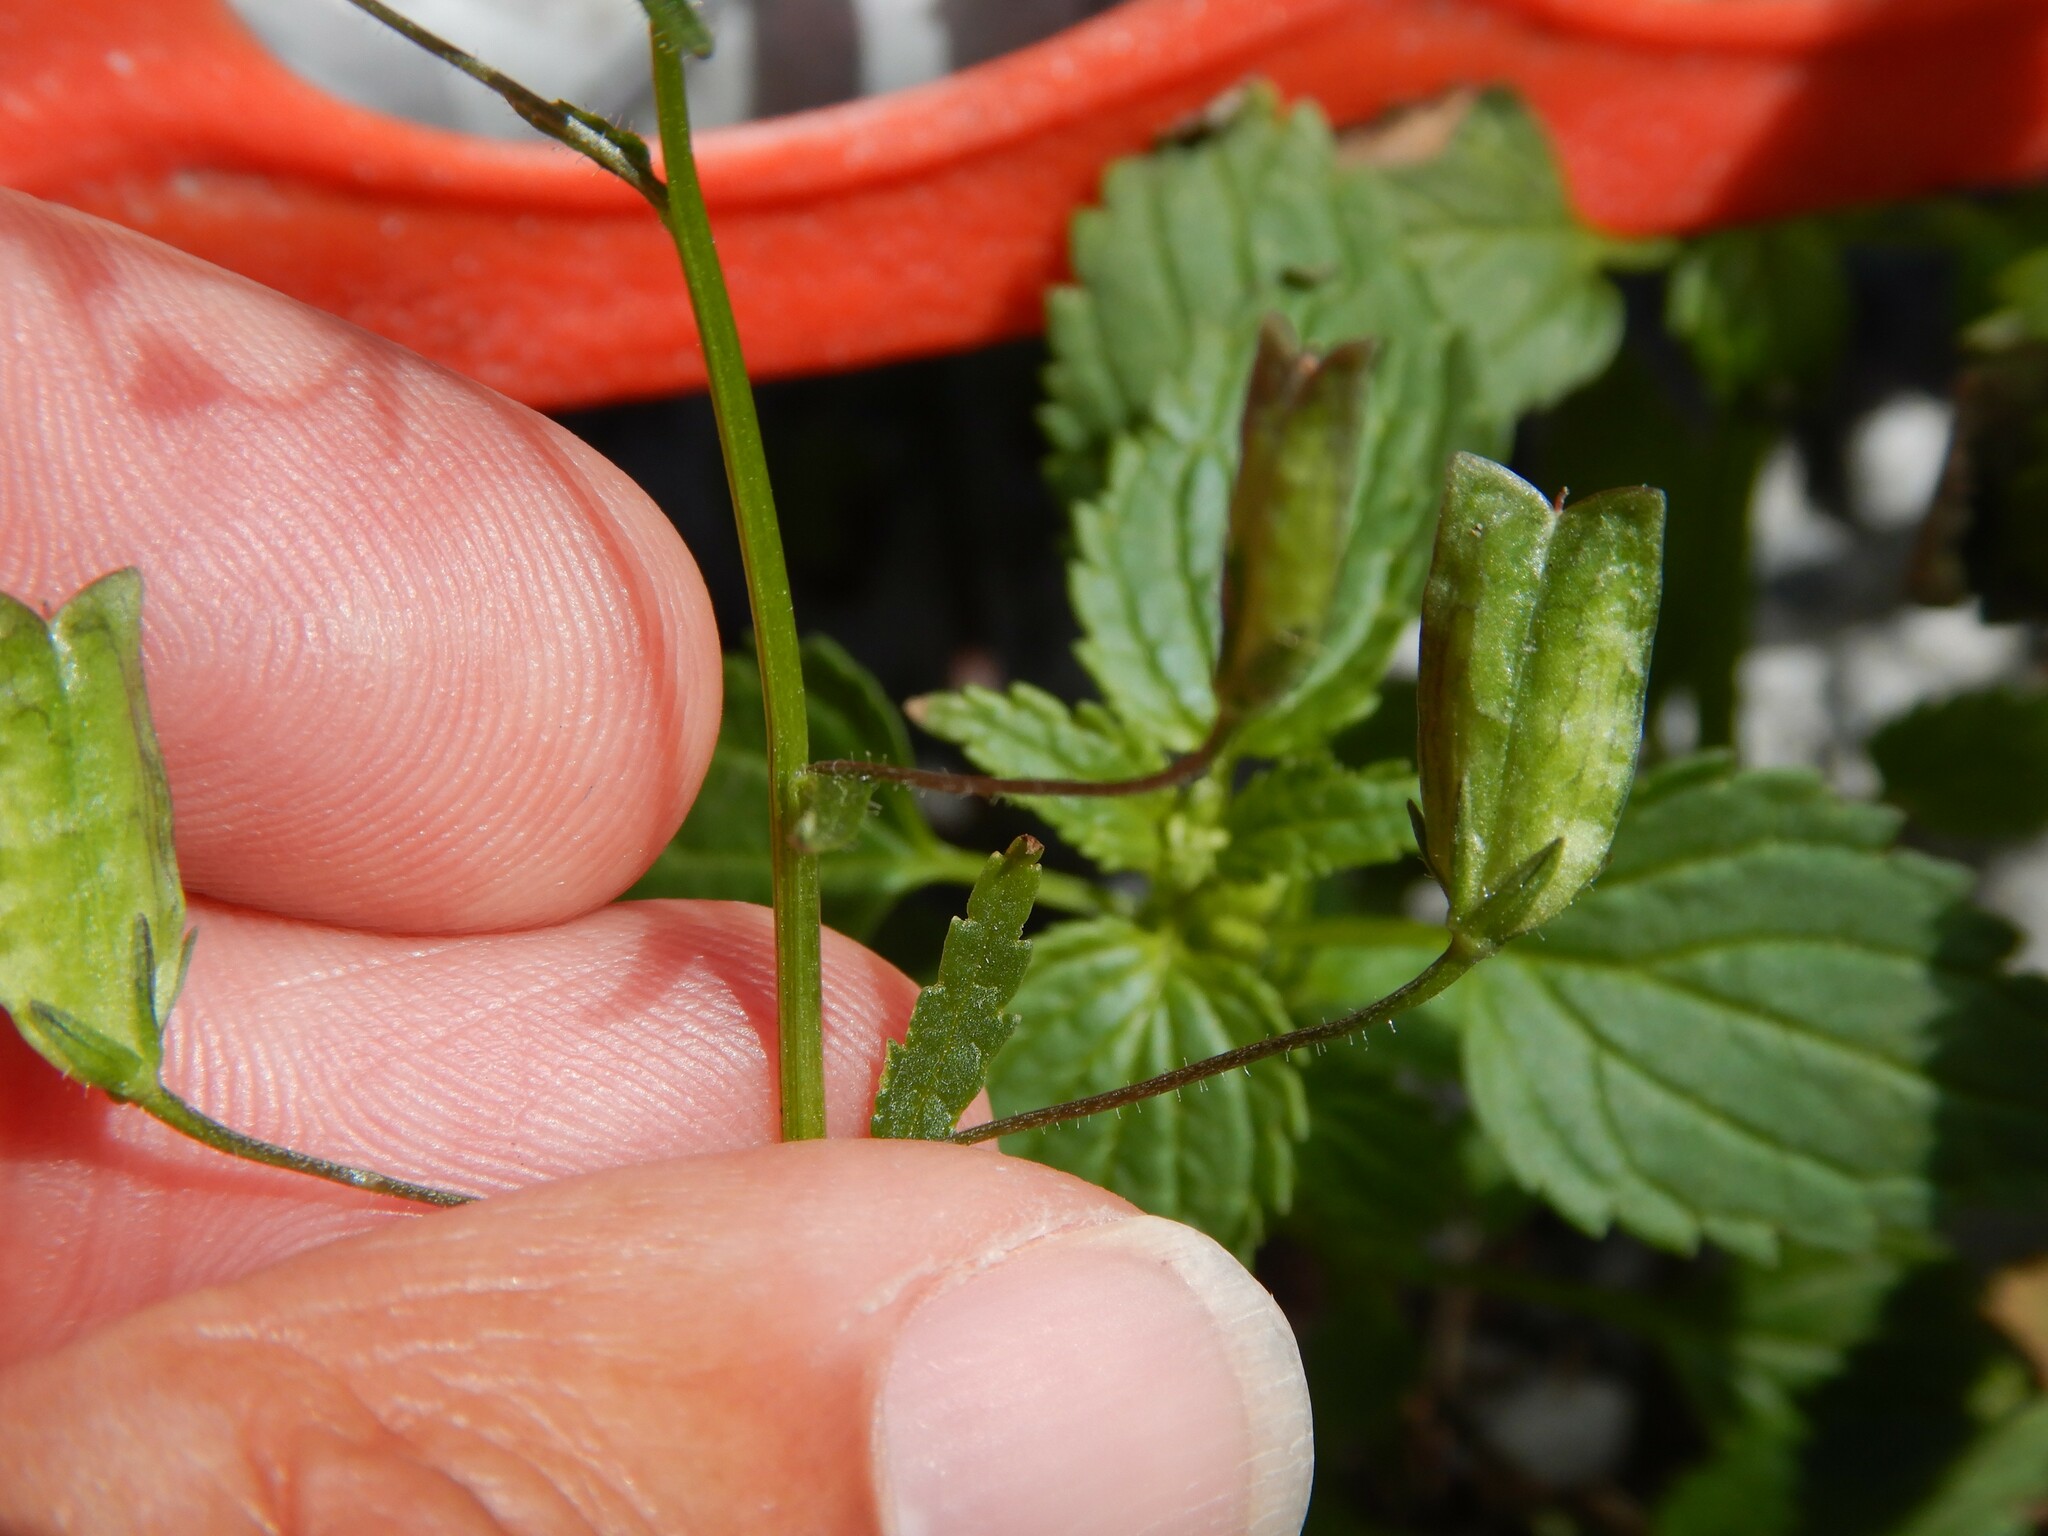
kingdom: Plantae
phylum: Tracheophyta
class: Magnoliopsida
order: Lamiales
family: Scrophulariaceae
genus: Nemesia
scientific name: Nemesia floribunda
